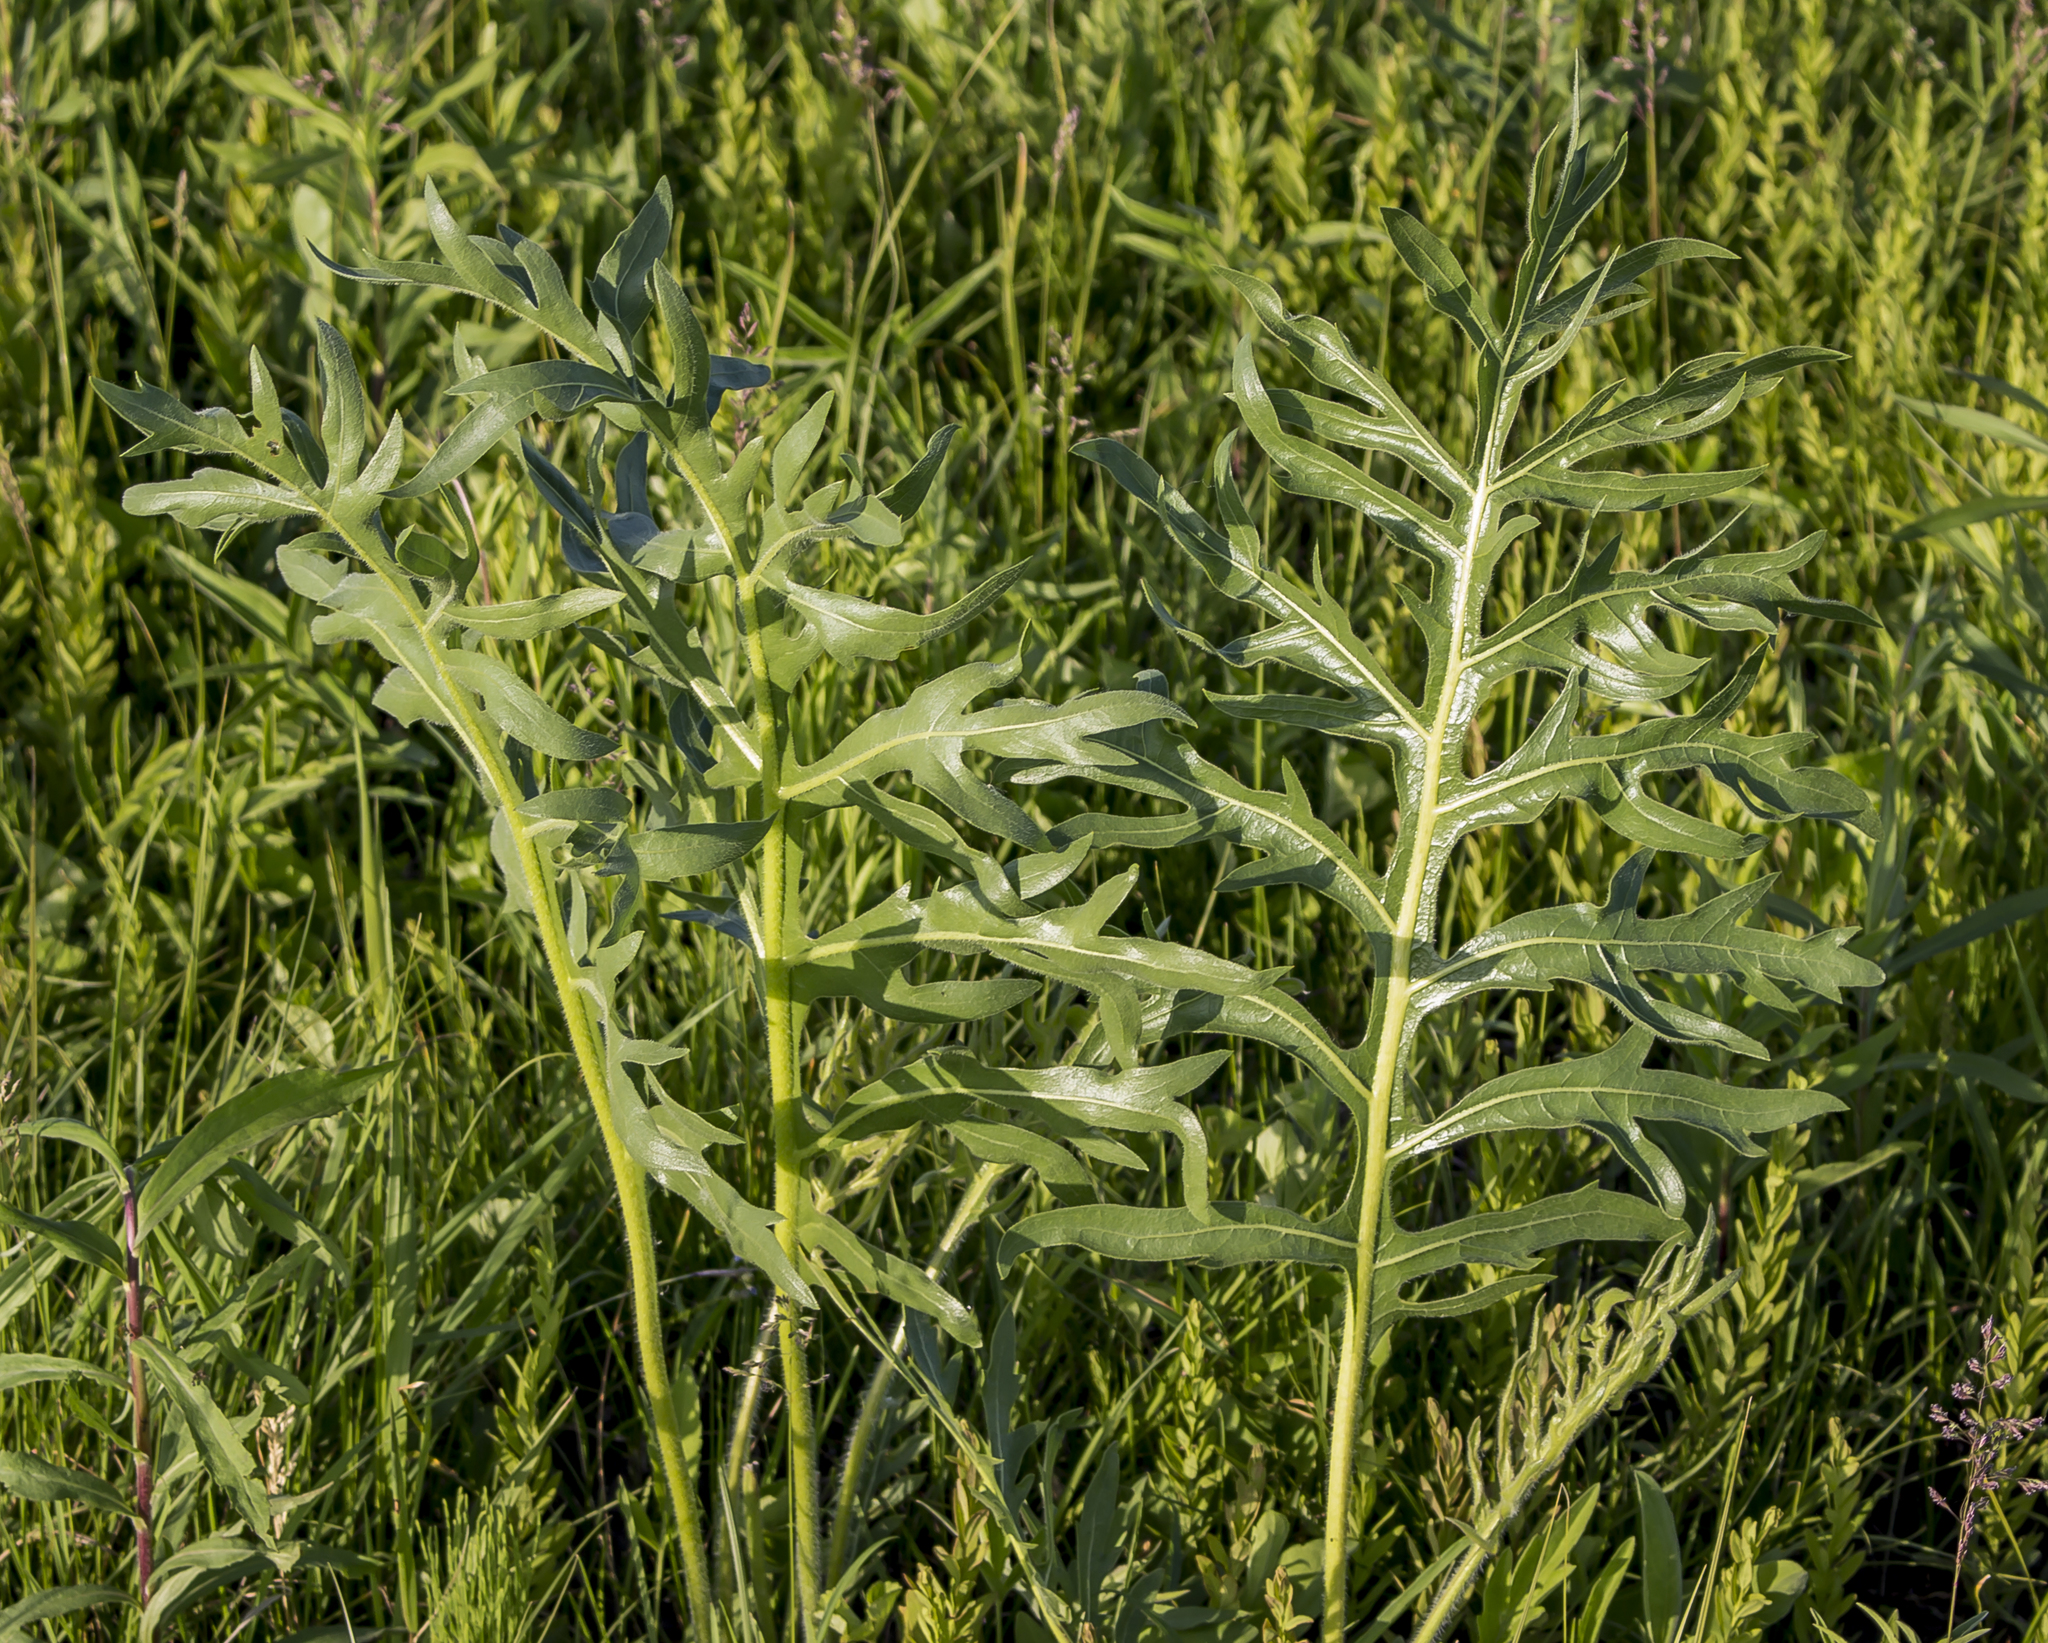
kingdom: Plantae
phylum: Tracheophyta
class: Magnoliopsida
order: Asterales
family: Asteraceae
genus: Silphium
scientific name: Silphium laciniatum
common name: Polarplant
